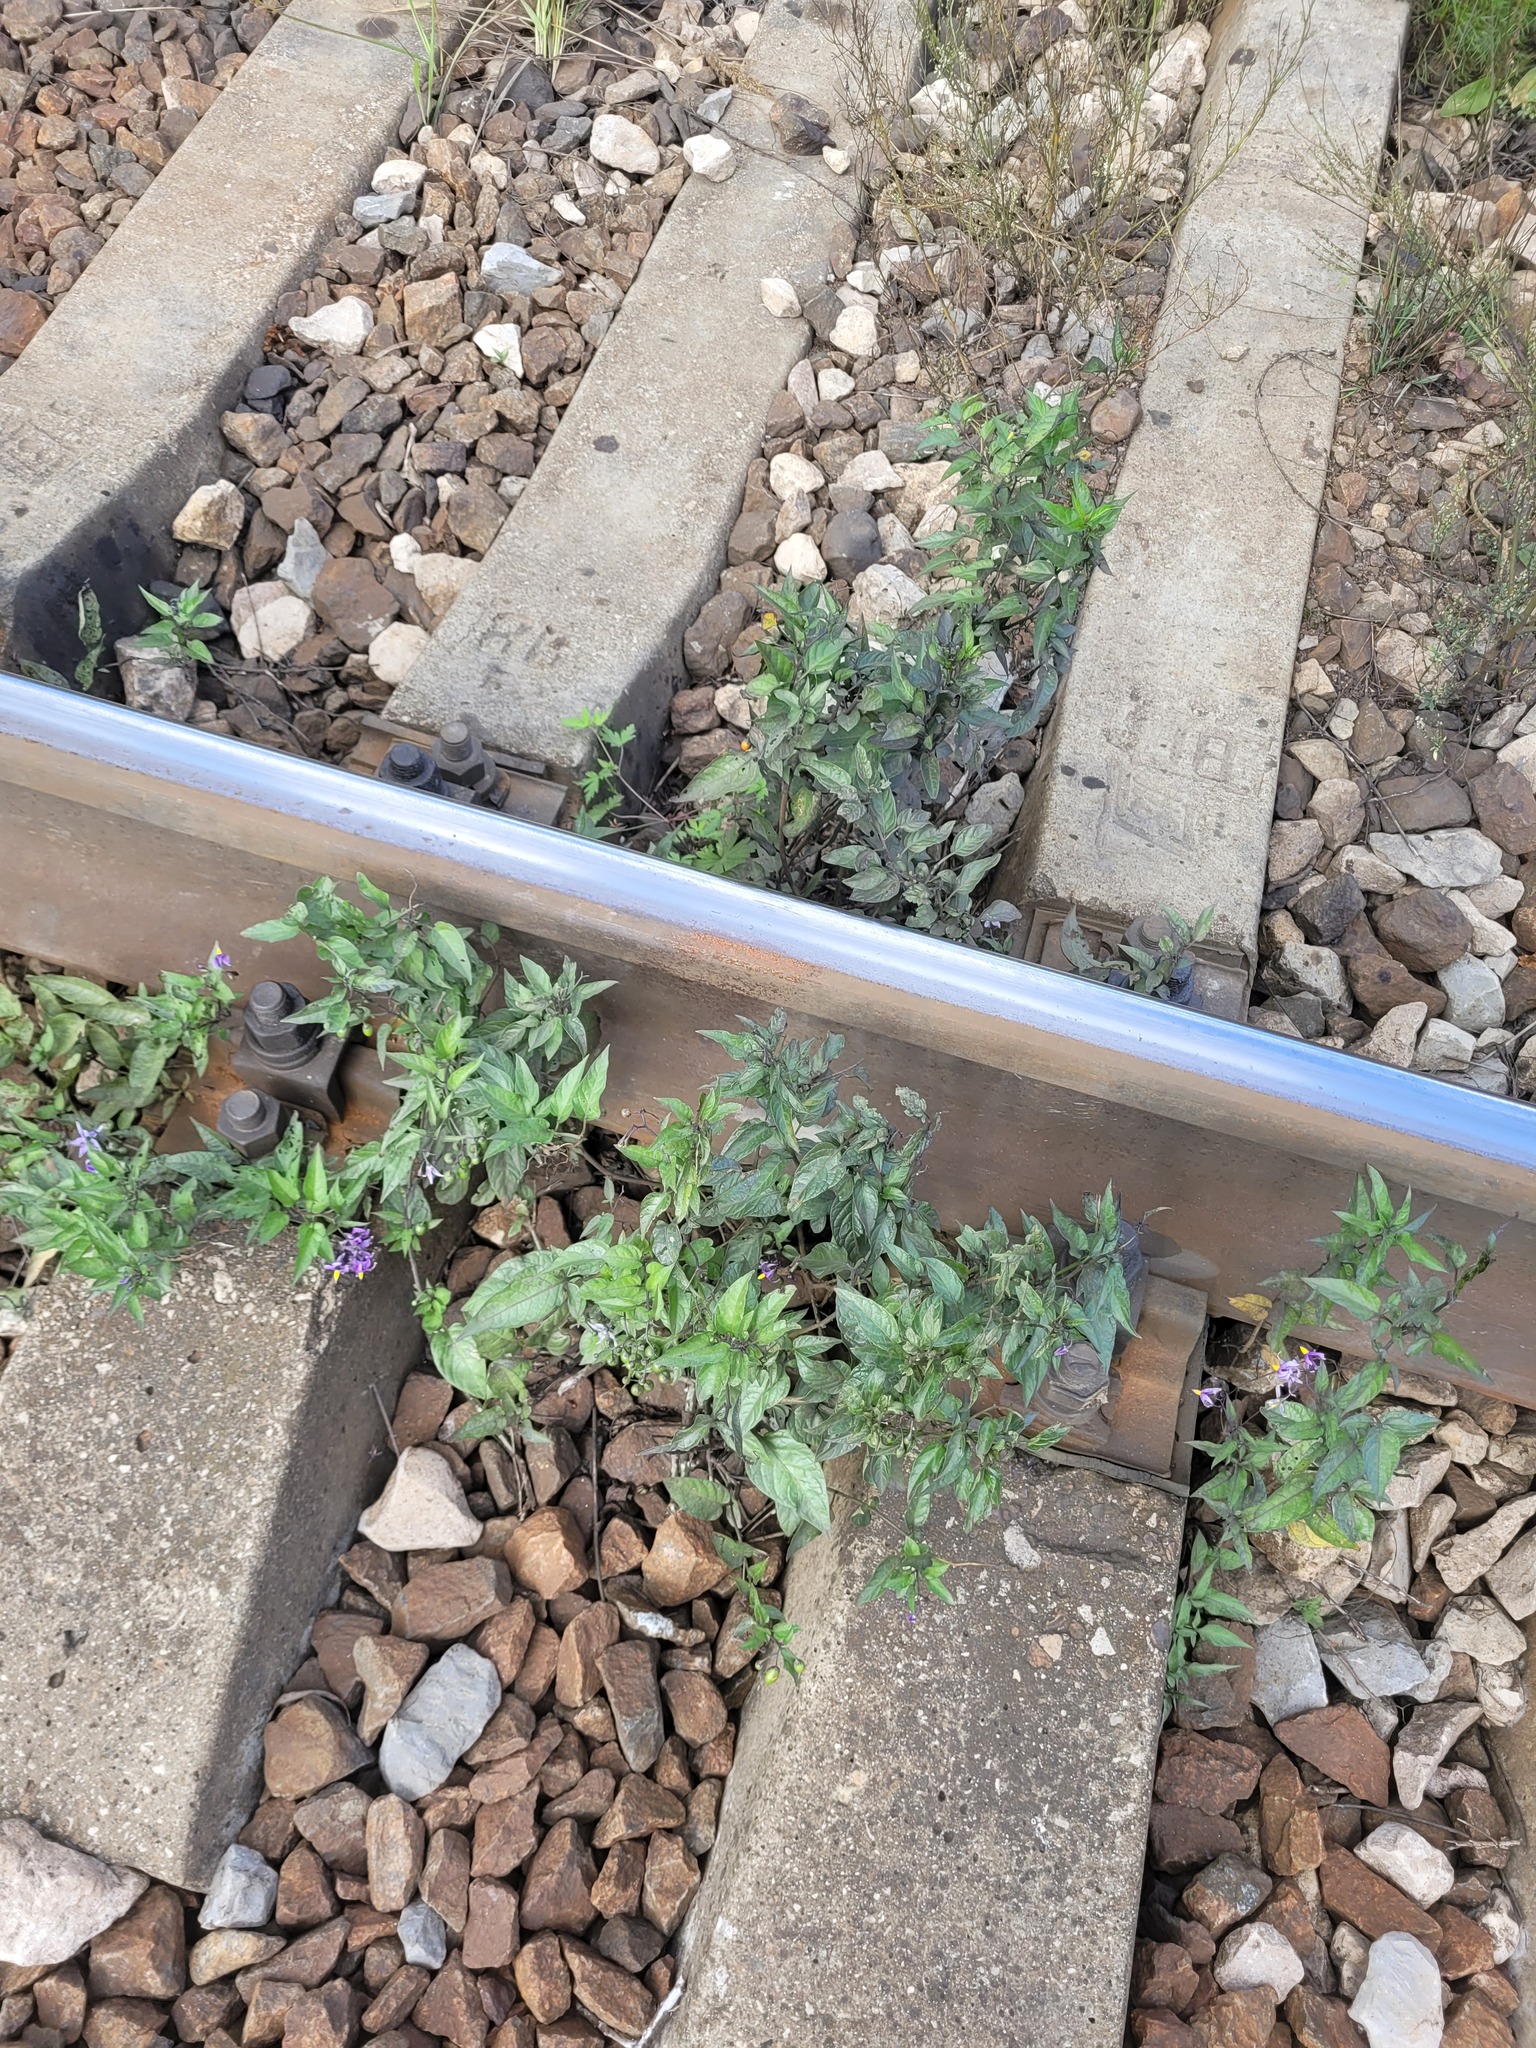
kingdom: Plantae
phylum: Tracheophyta
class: Magnoliopsida
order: Solanales
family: Solanaceae
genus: Solanum
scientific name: Solanum dulcamara
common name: Climbing nightshade
